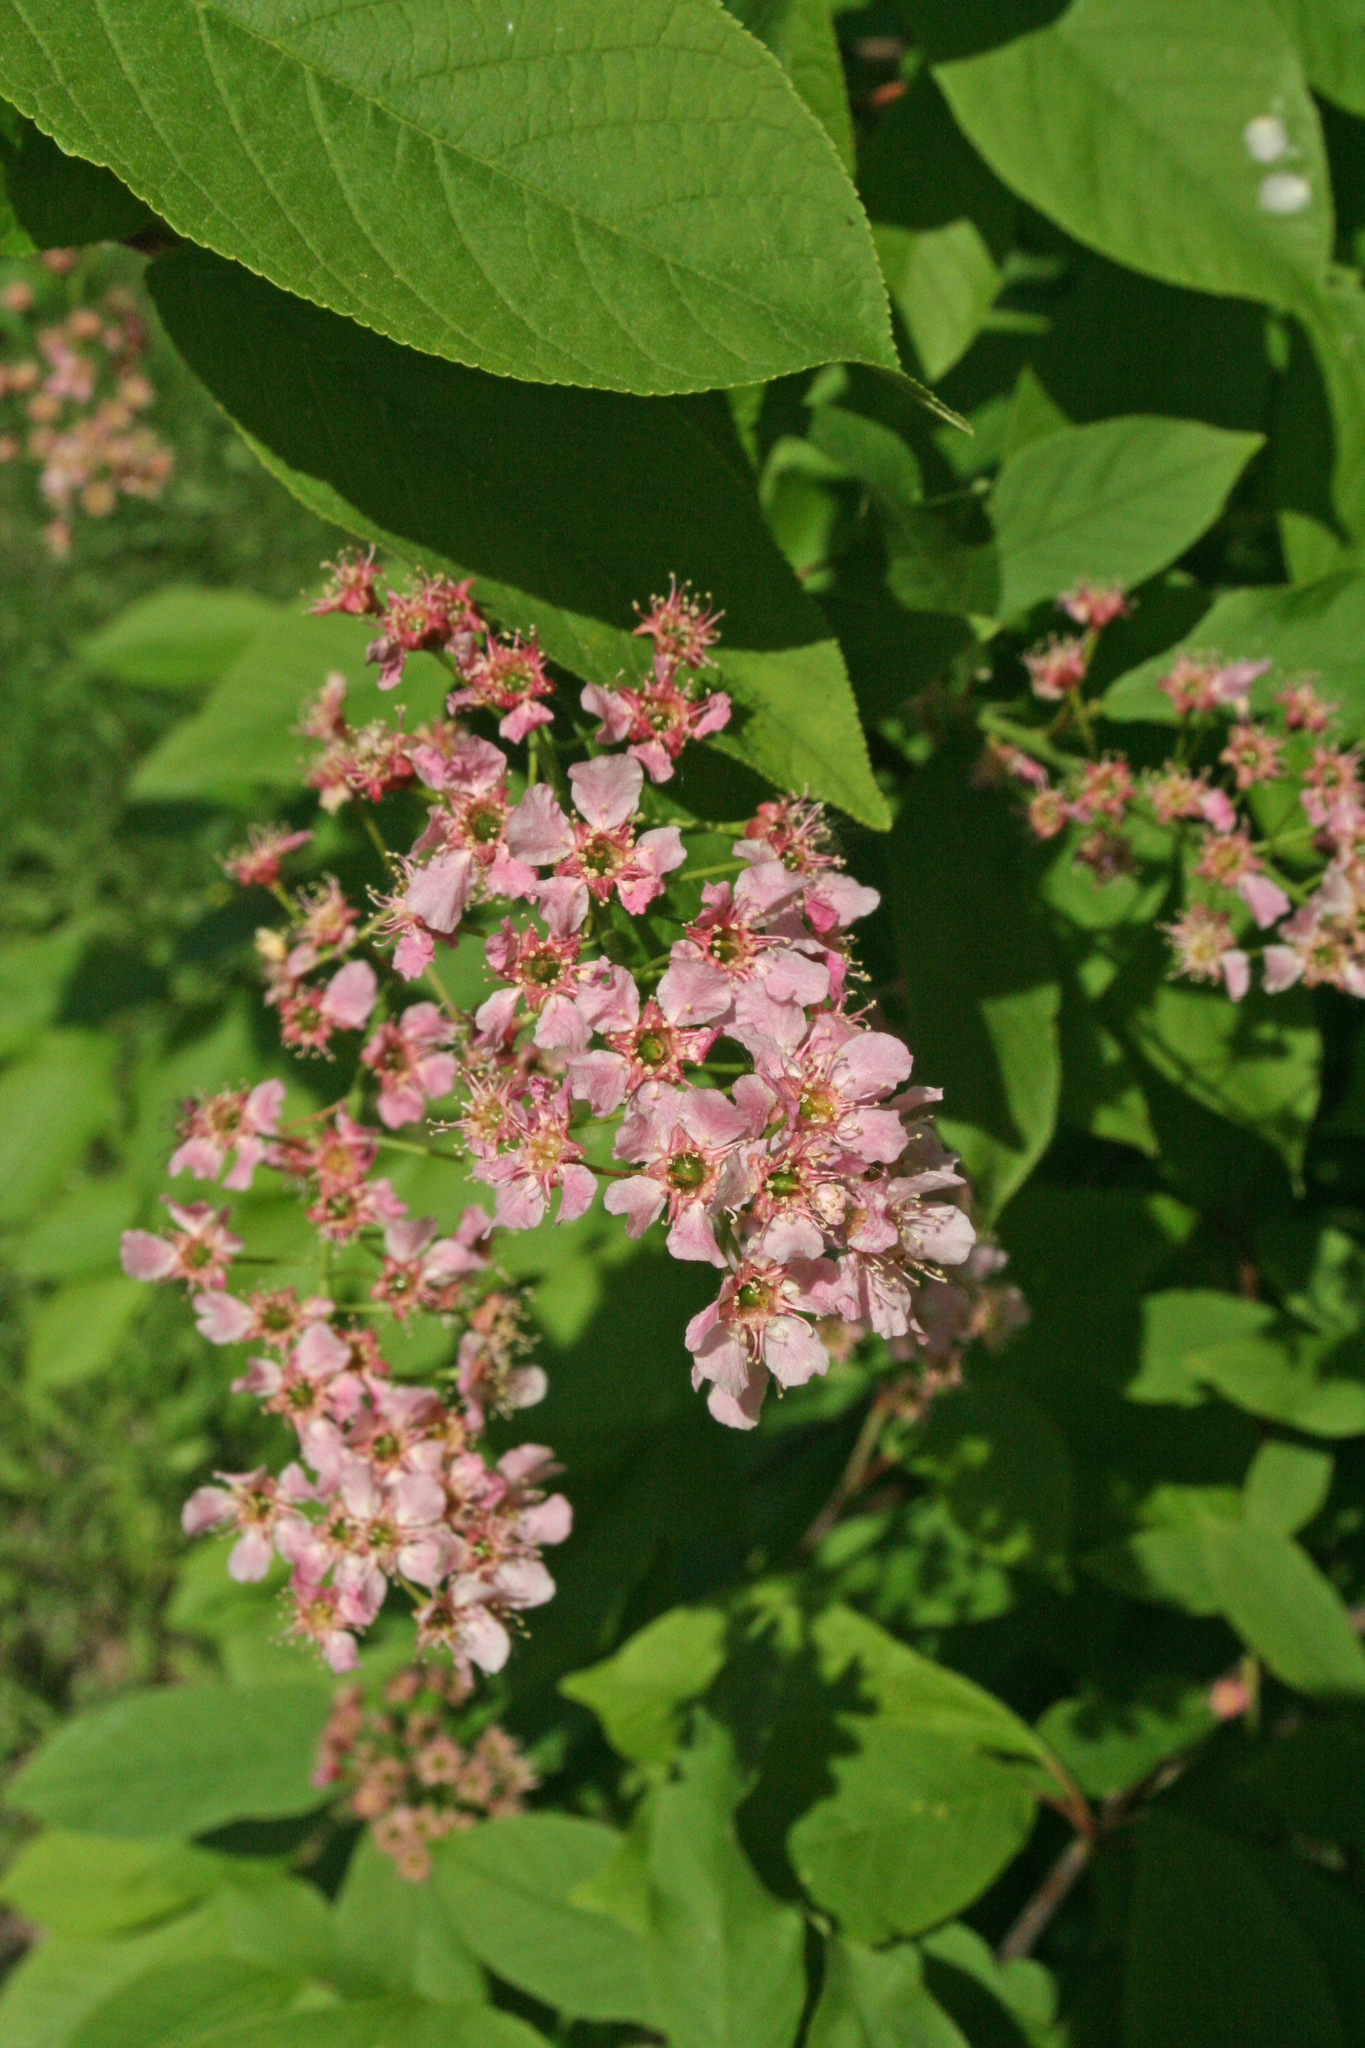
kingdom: Plantae
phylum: Tracheophyta
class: Magnoliopsida
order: Rosales
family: Rosaceae
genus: Prunus
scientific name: Prunus padus
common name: Bird cherry
